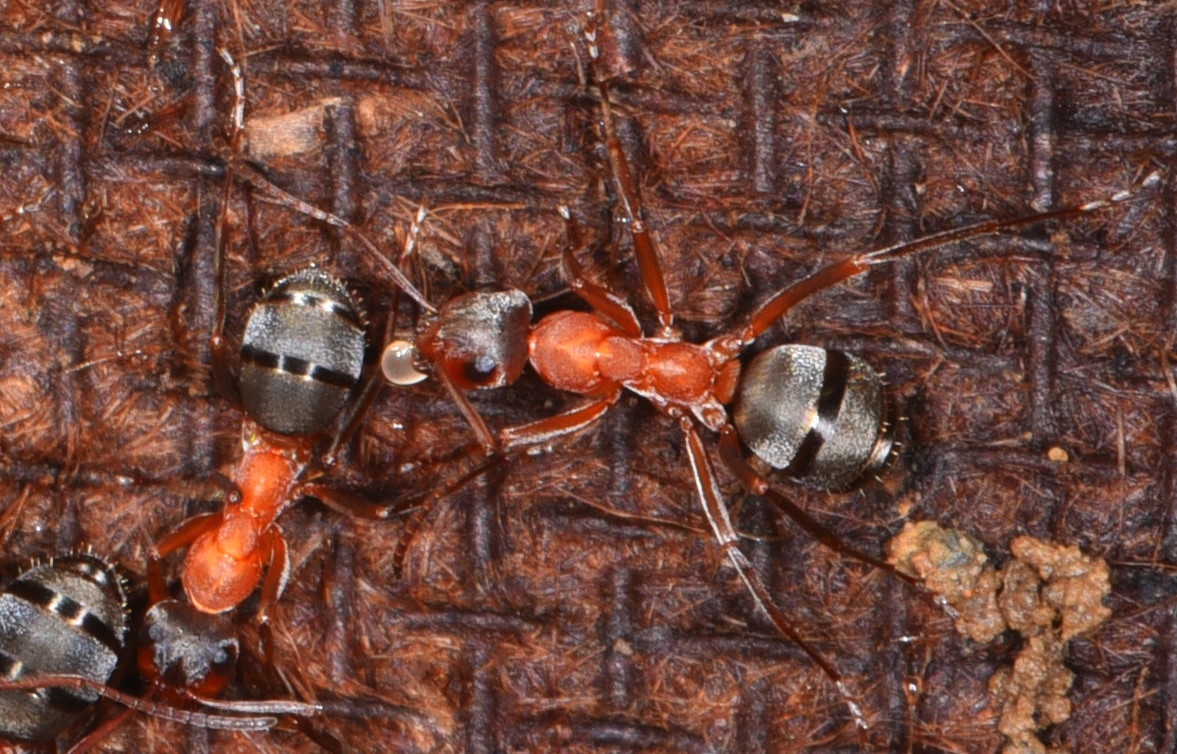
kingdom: Animalia
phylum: Arthropoda
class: Insecta
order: Hymenoptera
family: Formicidae
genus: Formica
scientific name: Formica moki
